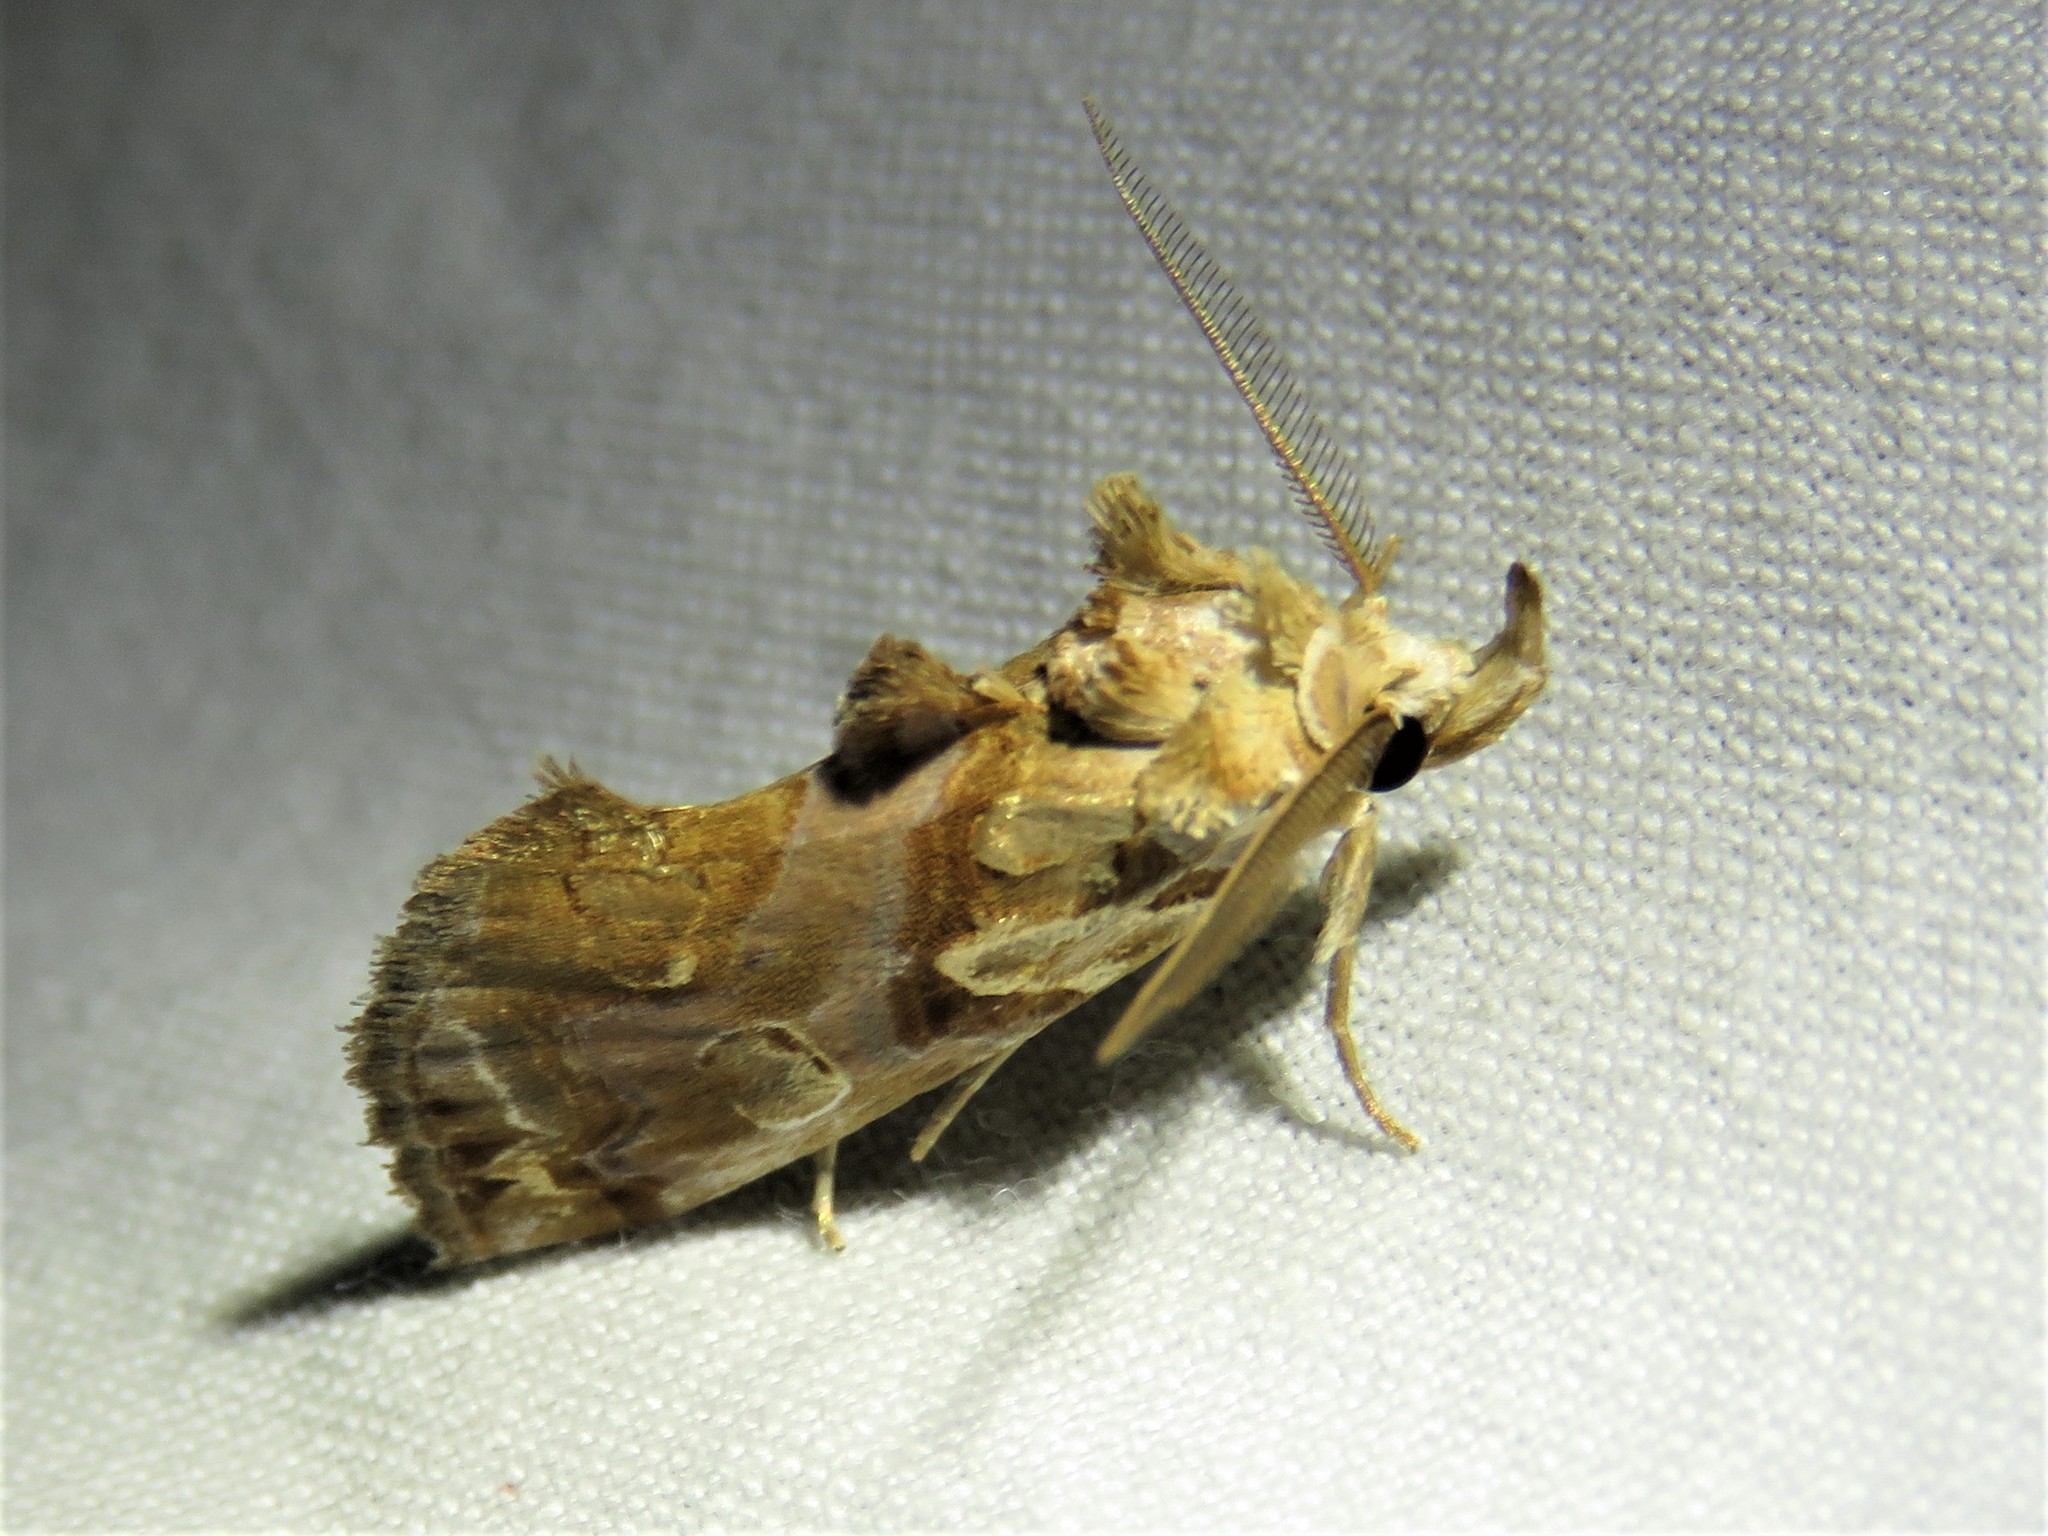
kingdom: Animalia
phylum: Arthropoda
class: Insecta
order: Lepidoptera
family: Erebidae
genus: Plusiodonta
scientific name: Plusiodonta compressipalpis
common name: Moonseed moth
